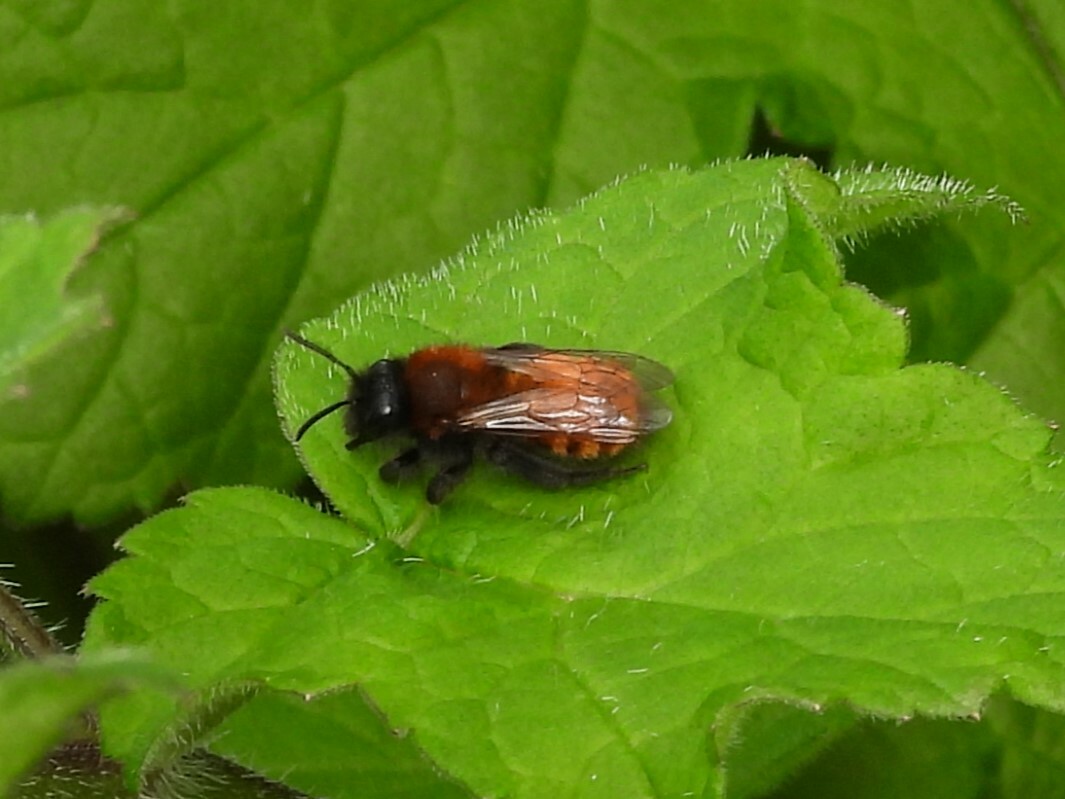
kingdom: Animalia
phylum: Arthropoda
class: Insecta
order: Hymenoptera
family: Andrenidae
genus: Andrena
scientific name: Andrena fulva
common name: Tawny mining bee
